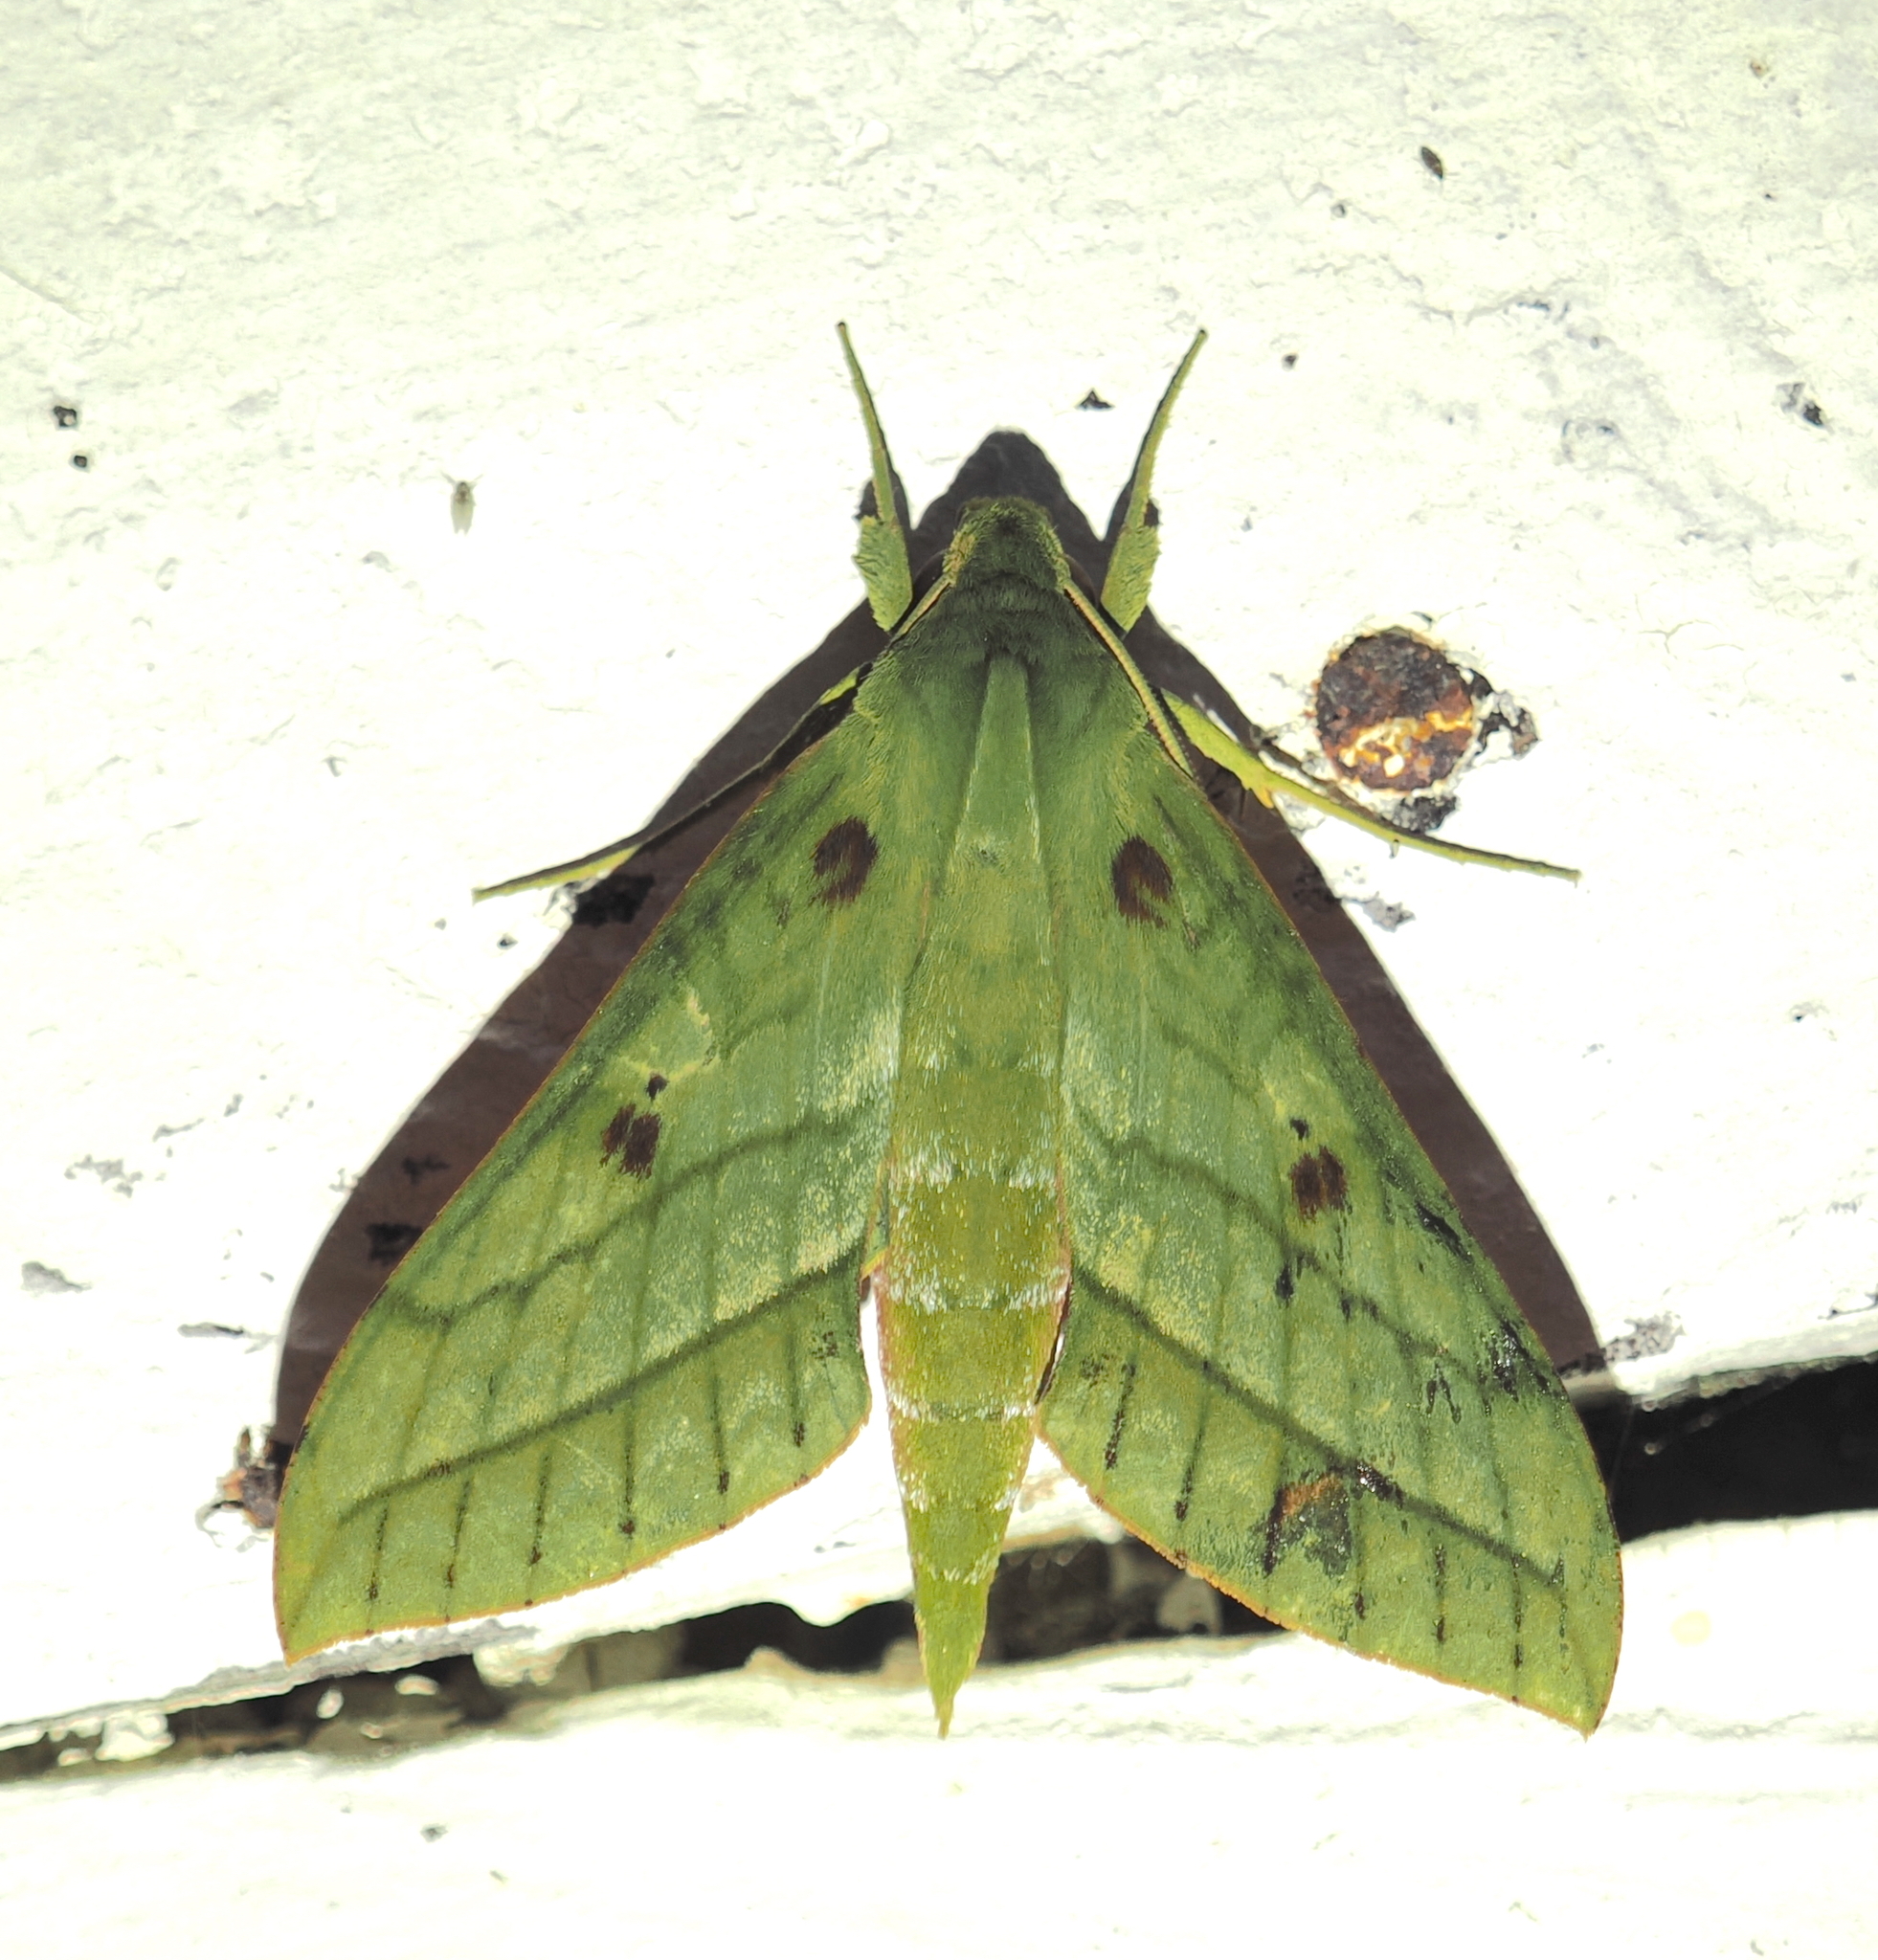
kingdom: Animalia
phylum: Arthropoda
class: Insecta
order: Lepidoptera
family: Sphingidae
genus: Xylophanes
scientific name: Xylophanes mirabilis
